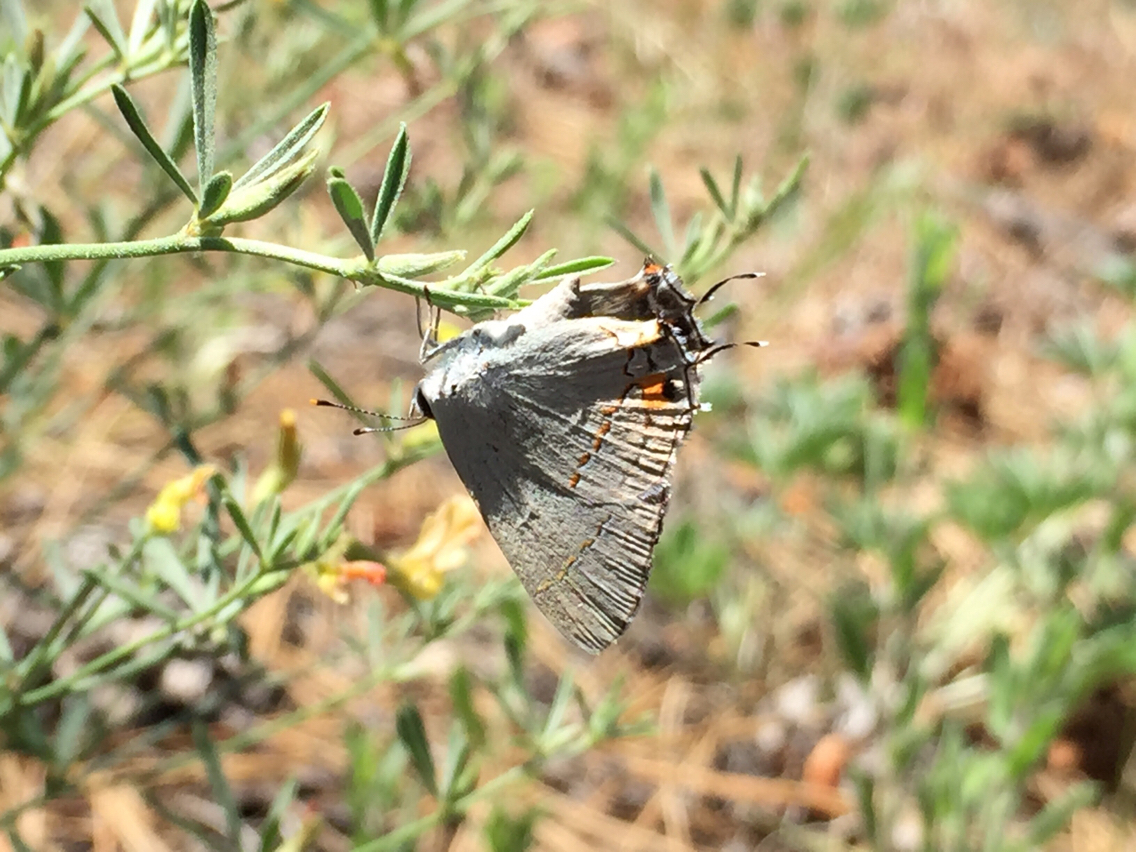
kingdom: Animalia
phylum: Arthropoda
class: Insecta
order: Lepidoptera
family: Lycaenidae
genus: Strymon
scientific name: Strymon melinus
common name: Gray hairstreak
